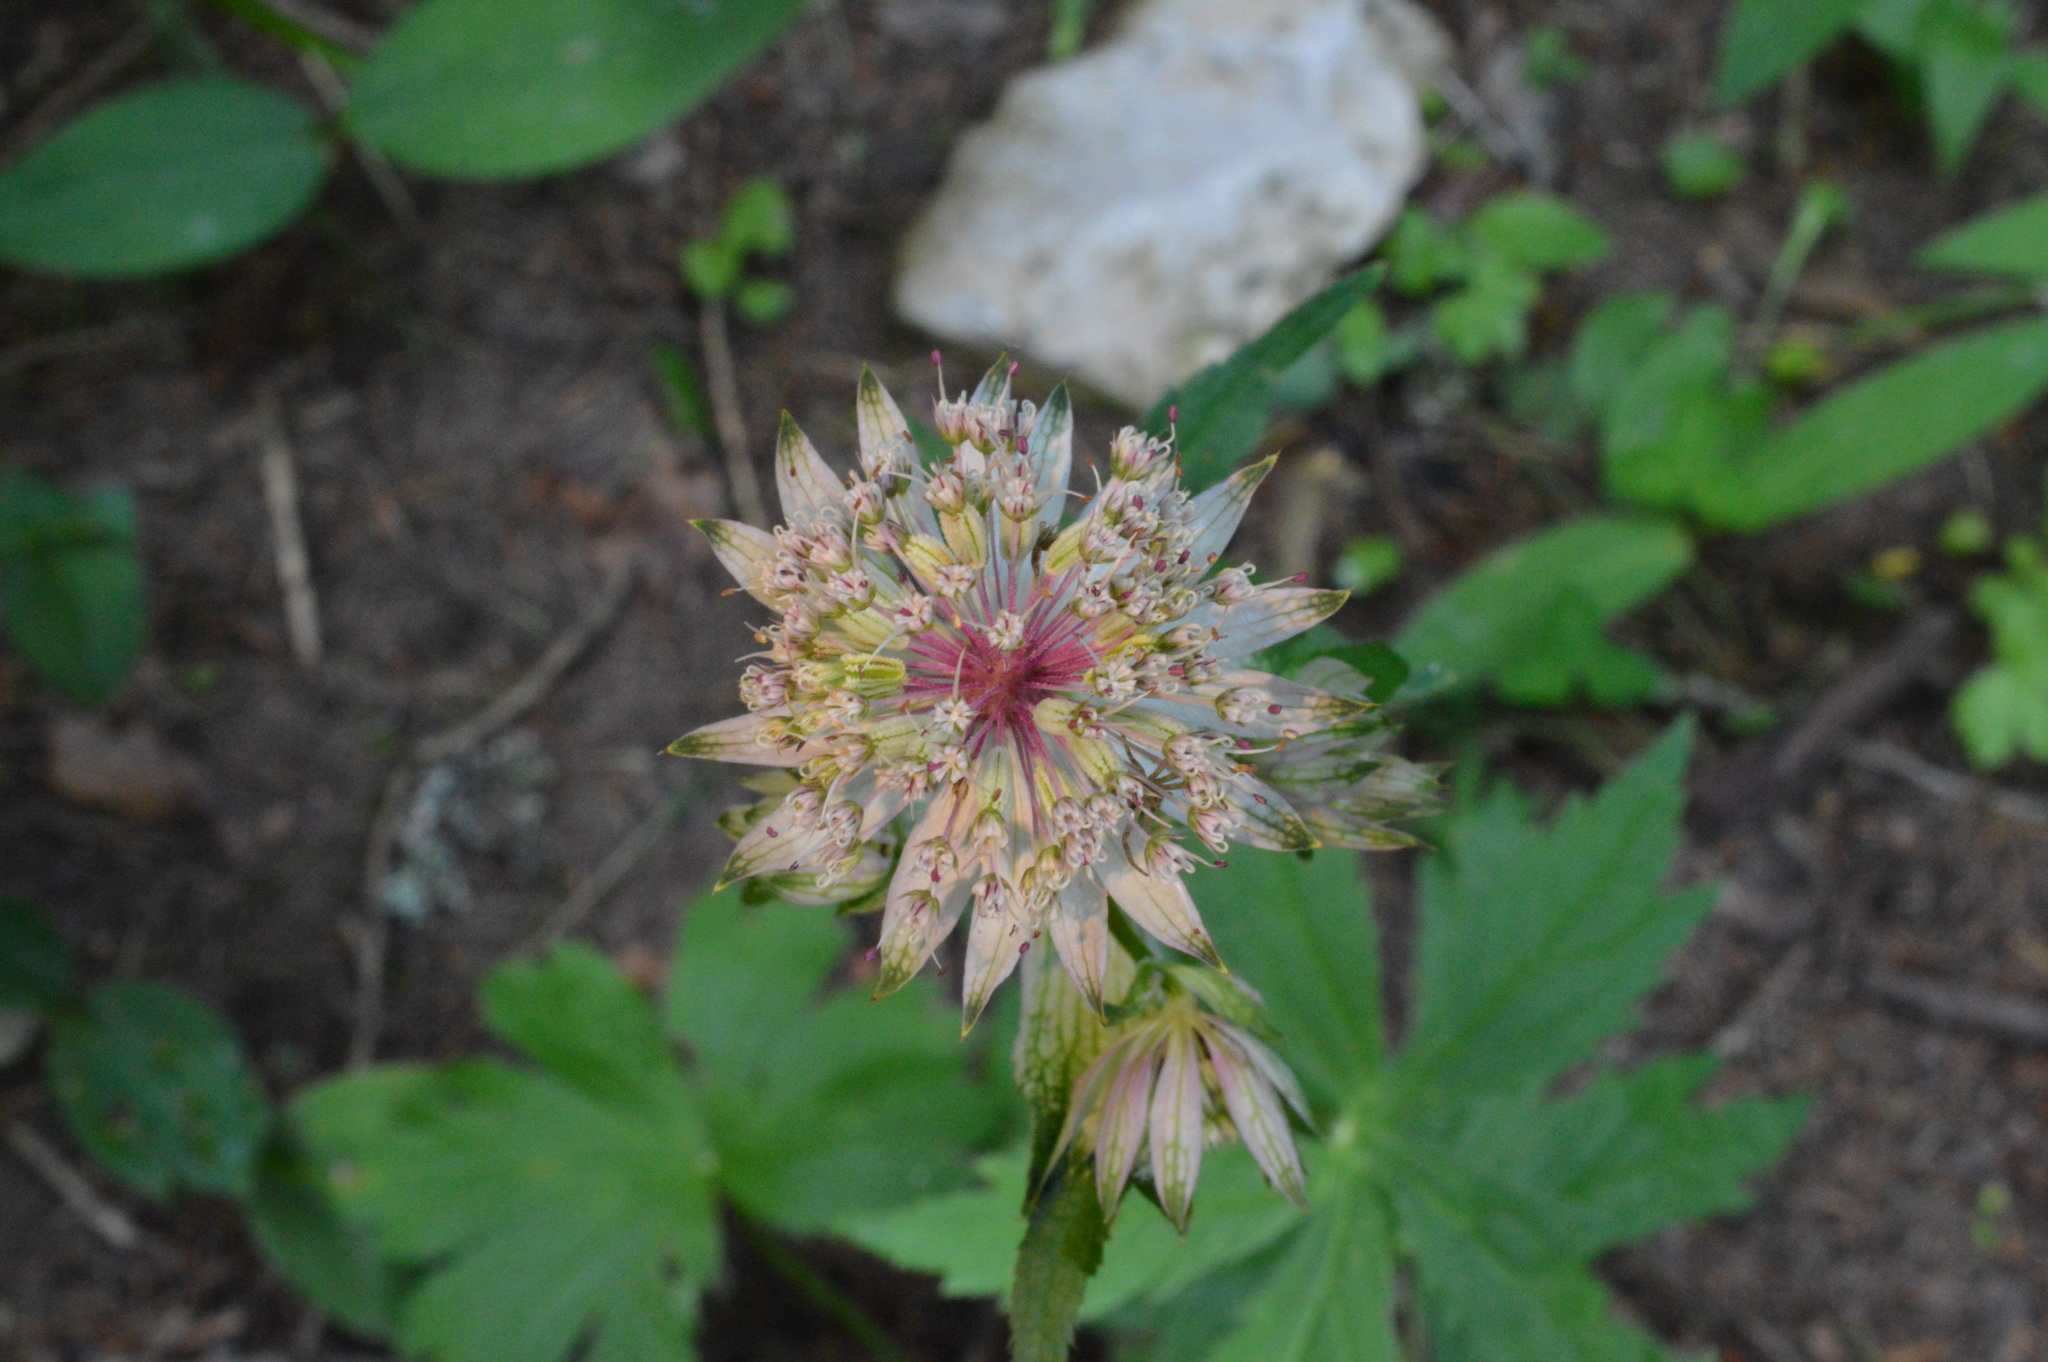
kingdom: Plantae
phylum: Tracheophyta
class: Magnoliopsida
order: Apiales
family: Apiaceae
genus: Astrantia
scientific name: Astrantia major
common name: Greater masterwort
